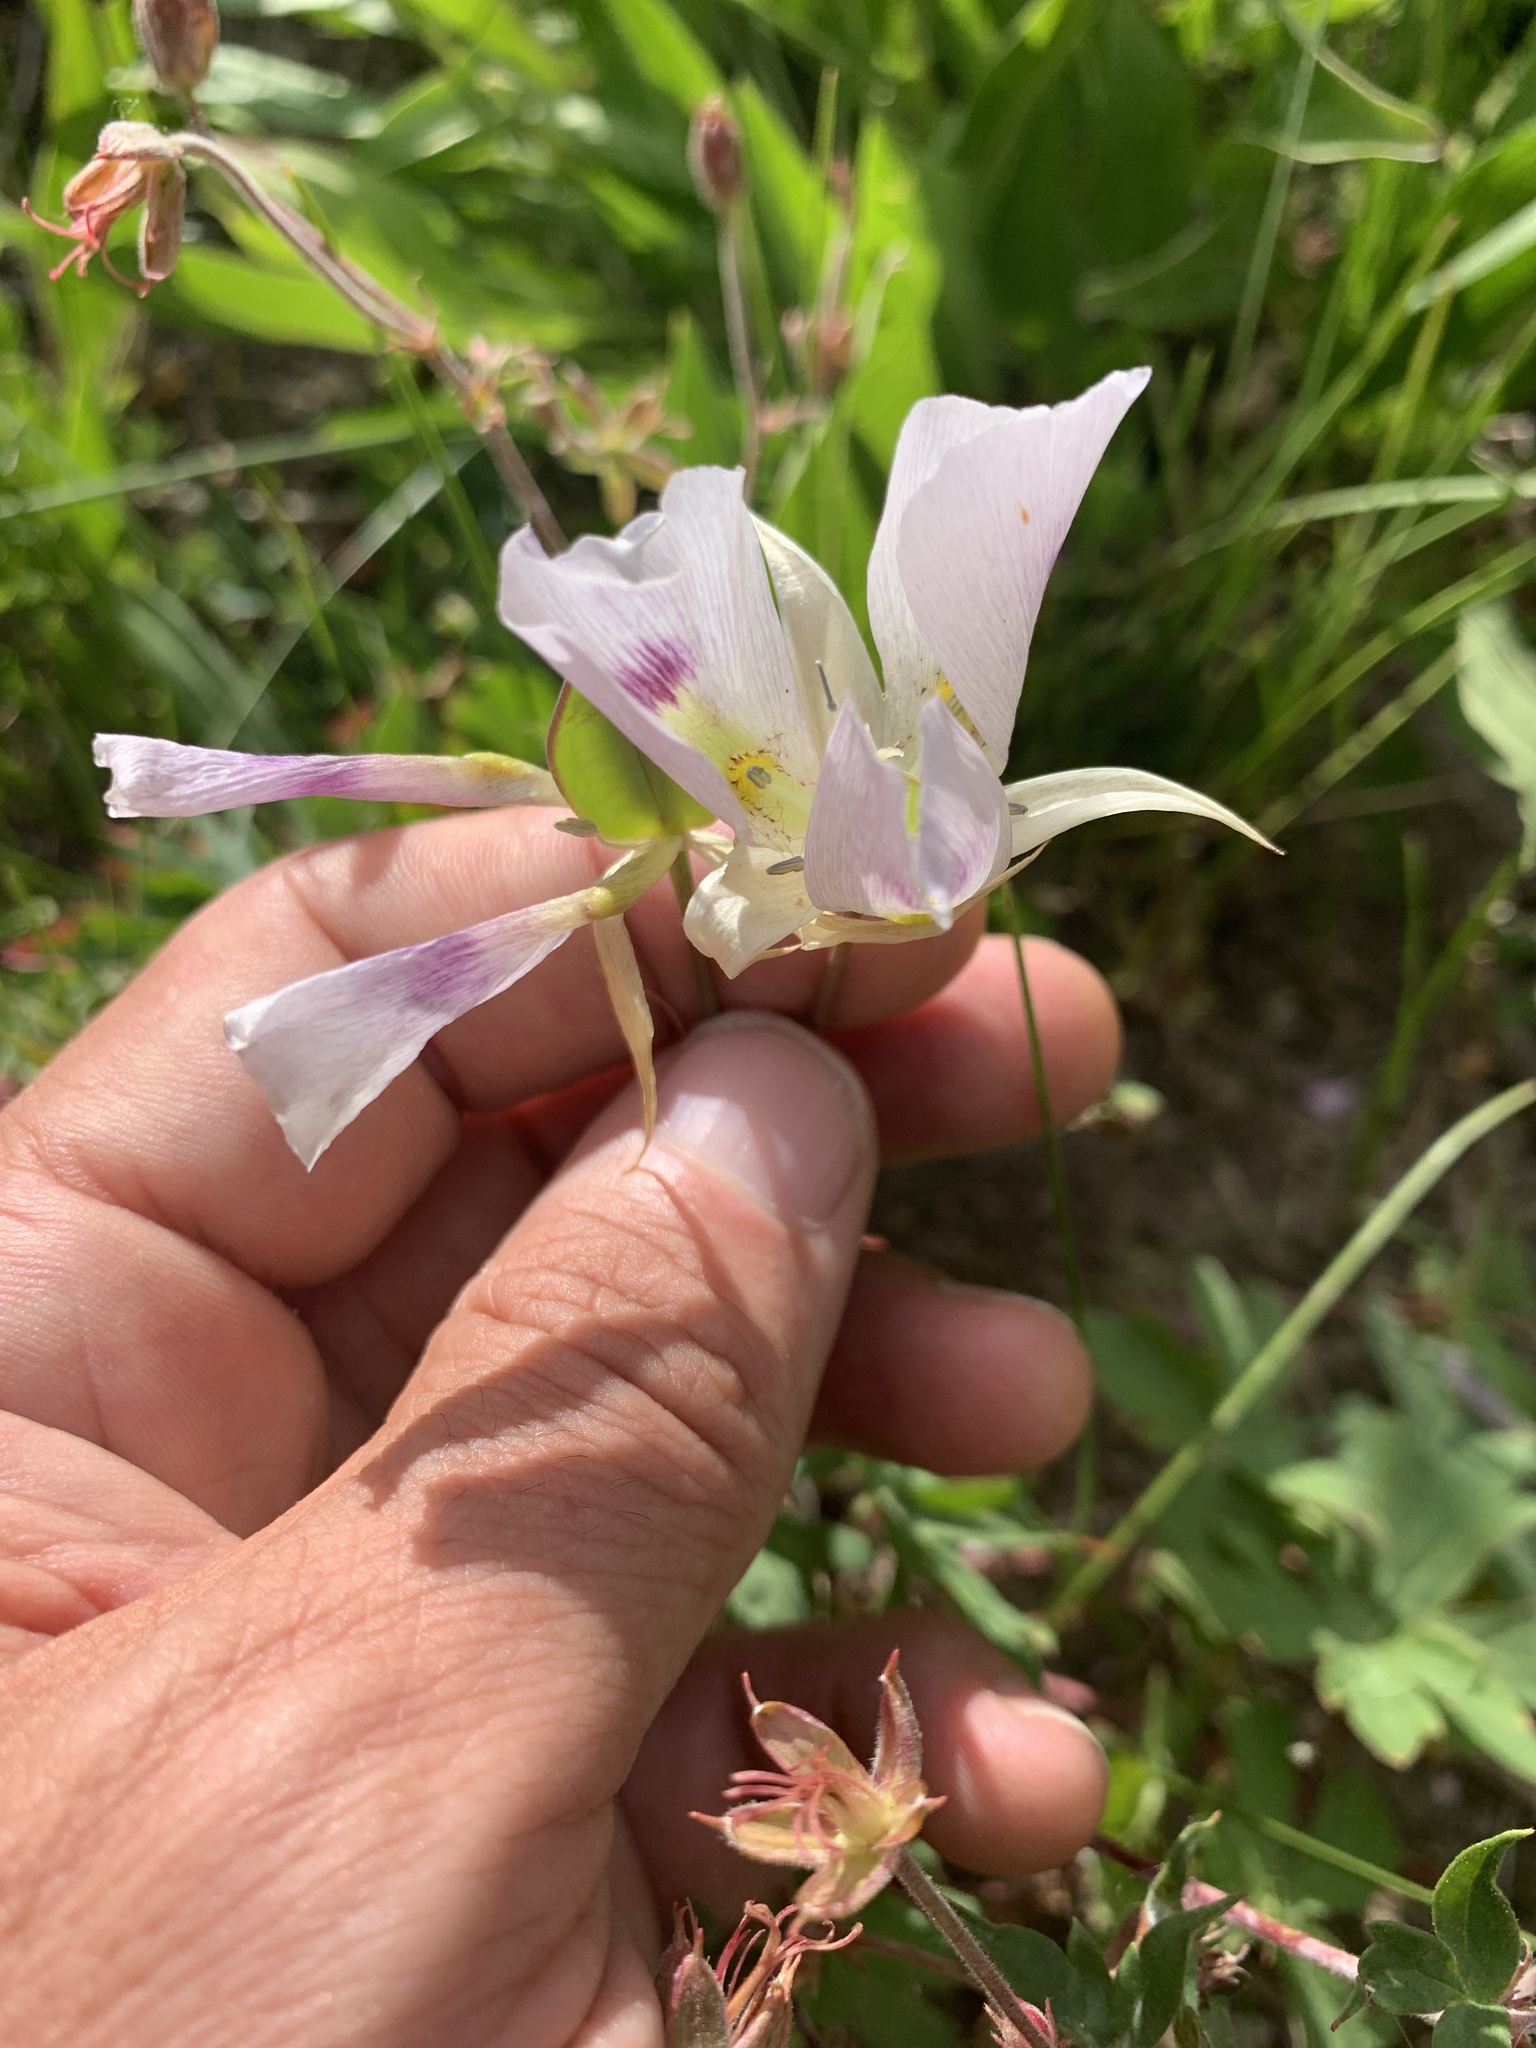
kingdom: Plantae
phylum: Tracheophyta
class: Liliopsida
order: Liliales
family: Liliaceae
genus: Calochortus
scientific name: Calochortus eurycarpus
